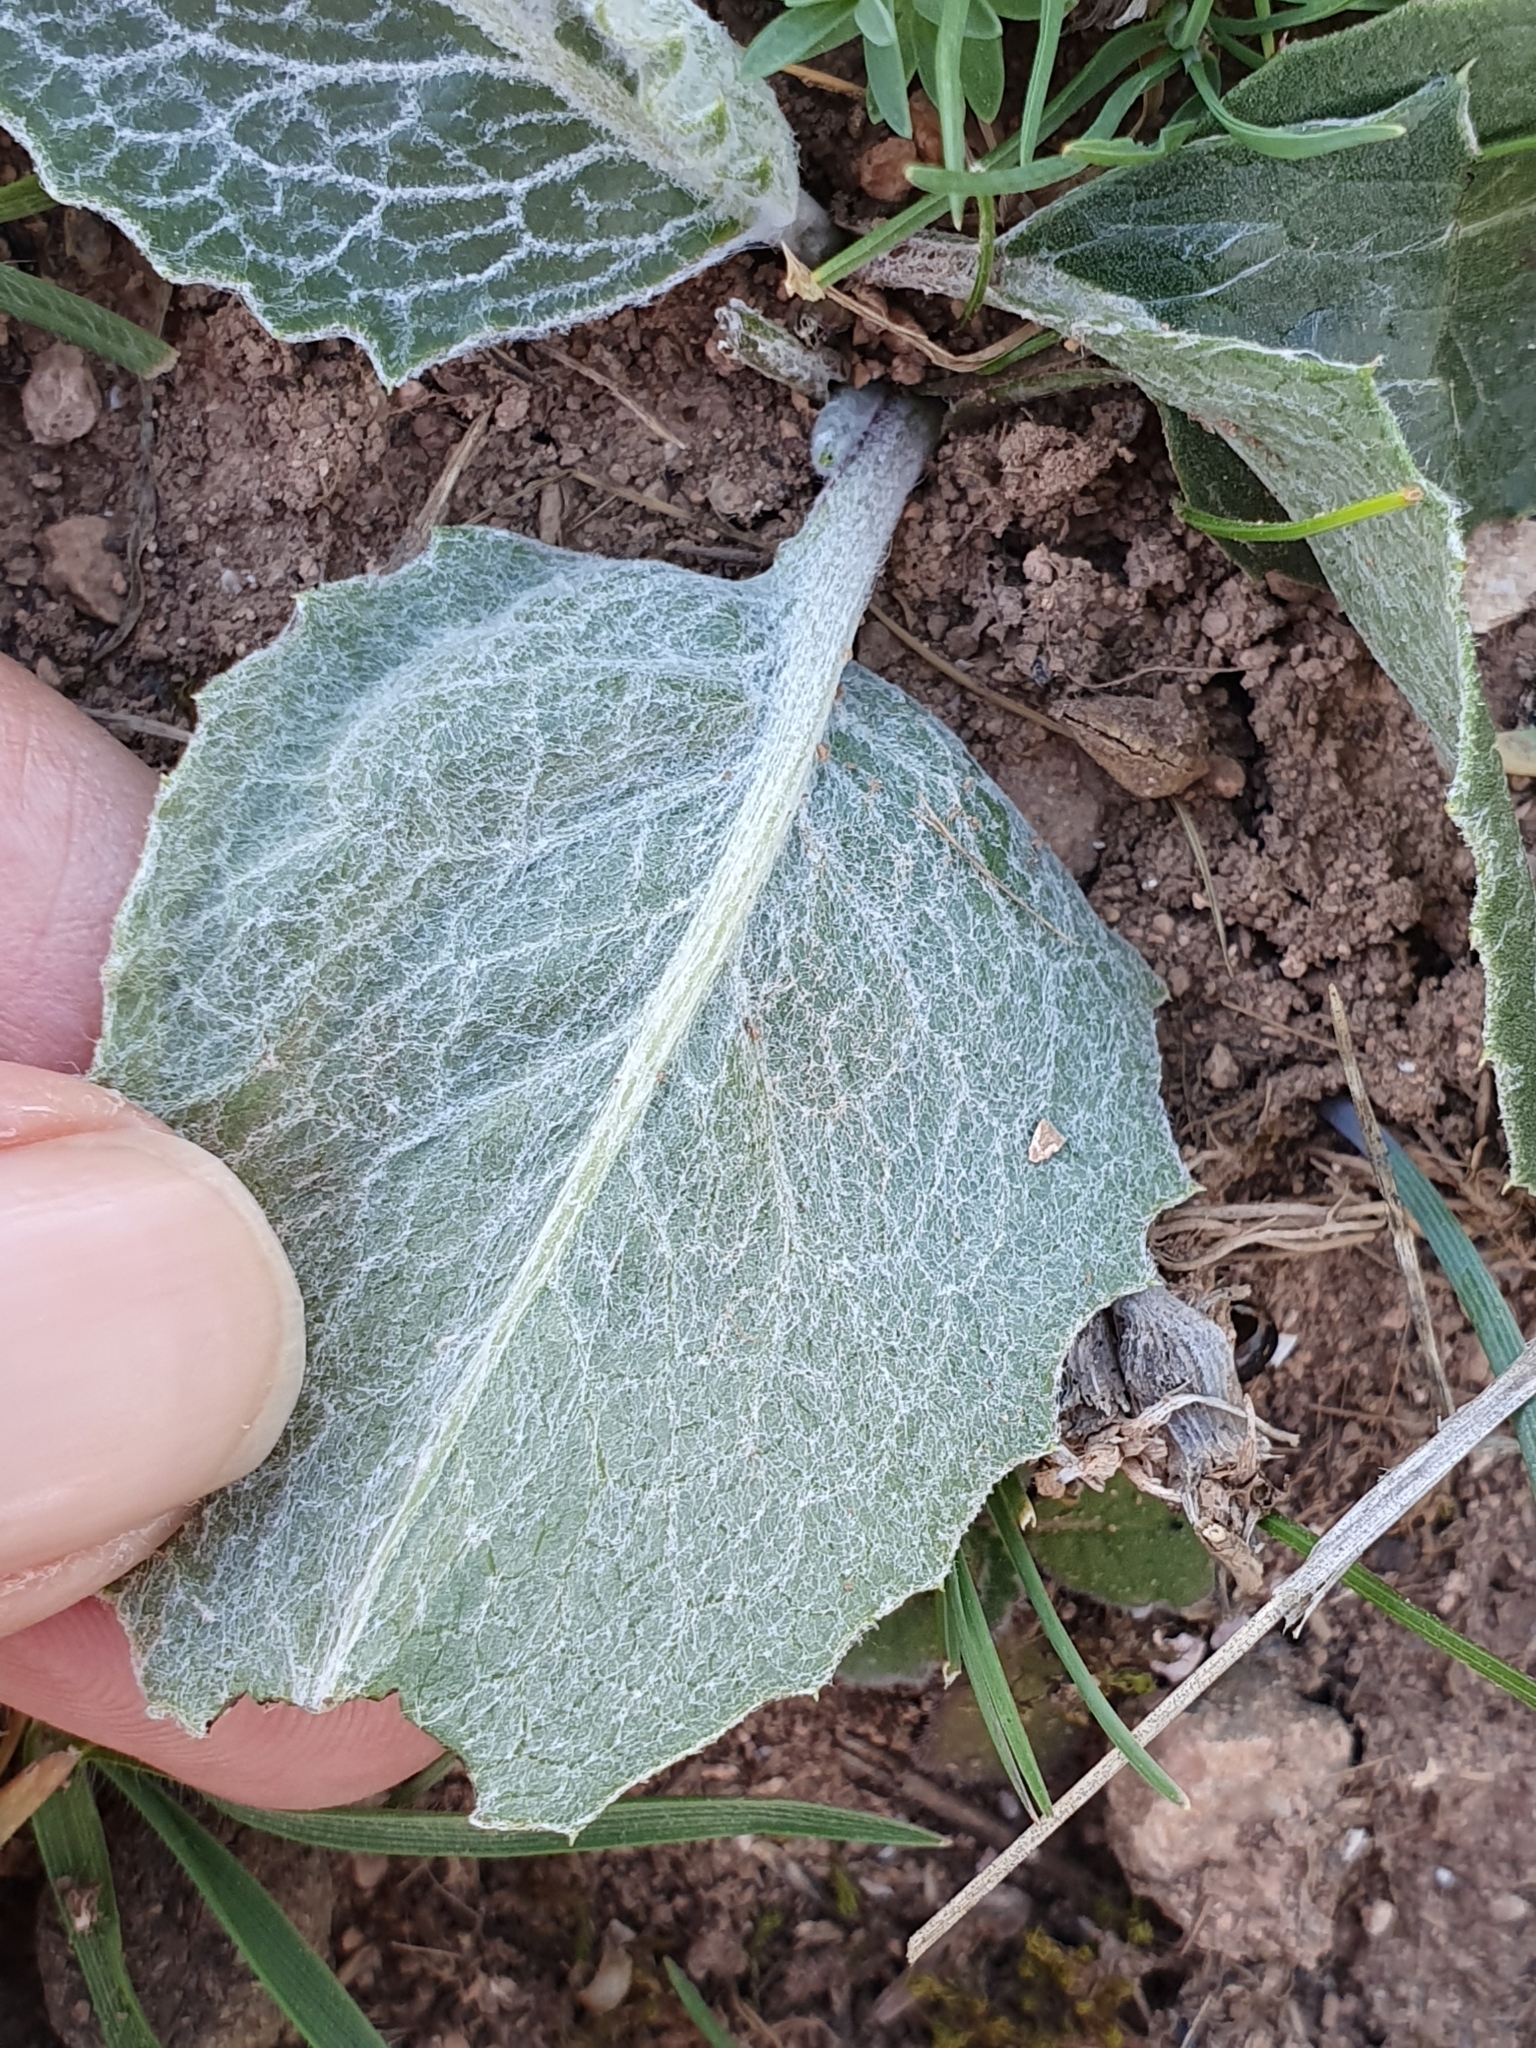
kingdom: Plantae
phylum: Tracheophyta
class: Magnoliopsida
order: Asterales
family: Asteraceae
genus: Klasea
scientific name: Klasea pinnatifida
